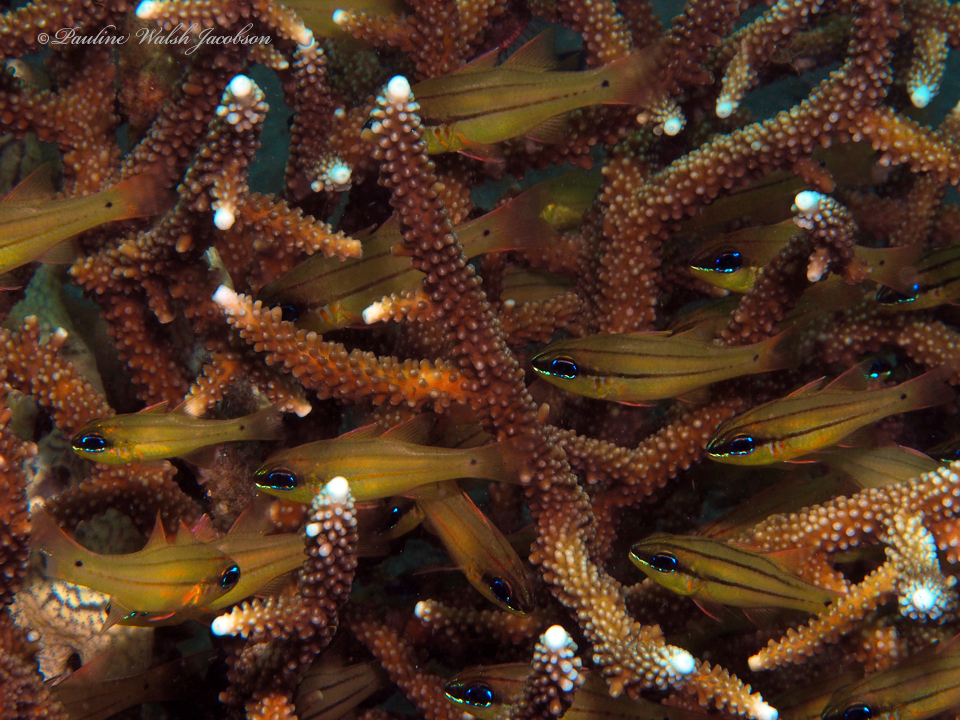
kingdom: Animalia
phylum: Chordata
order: Perciformes
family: Apogonidae
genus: Ostorhinchus
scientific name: Ostorhinchus sealei
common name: Seale's cardinalfish
